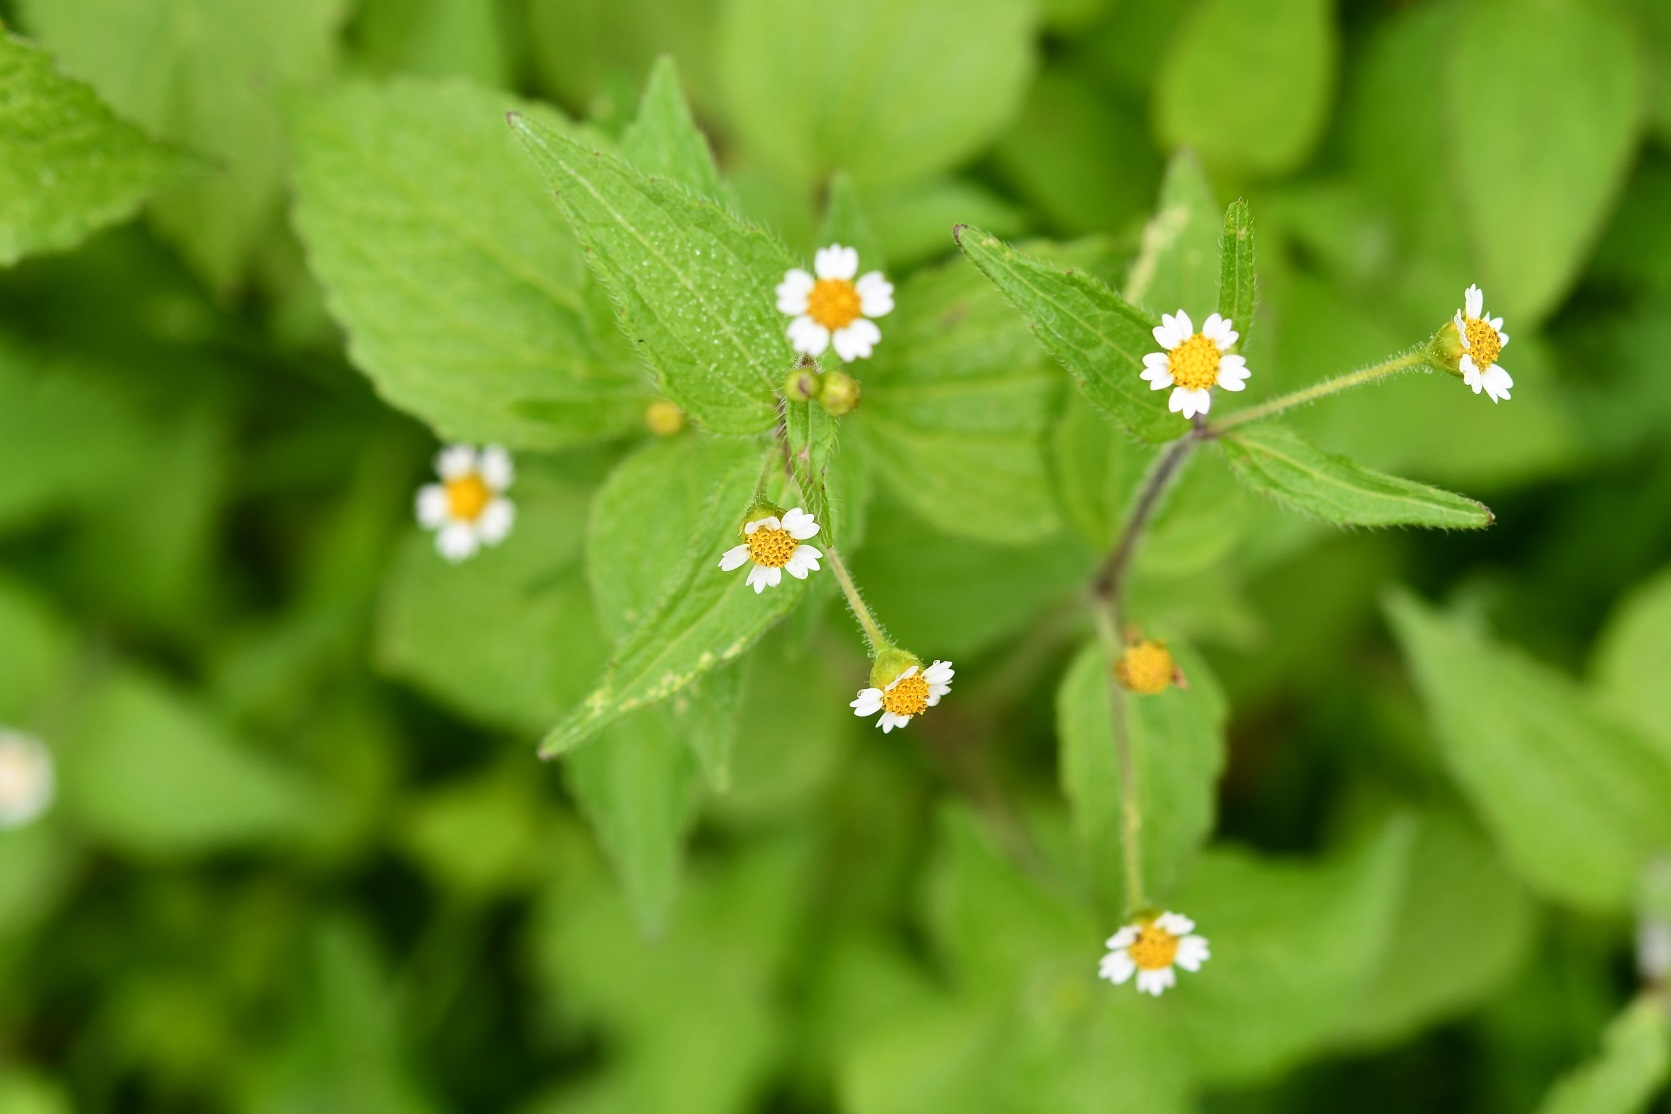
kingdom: Plantae
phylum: Tracheophyta
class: Magnoliopsida
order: Asterales
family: Asteraceae
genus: Galinsoga
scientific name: Galinsoga quadriradiata
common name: Shaggy soldier
